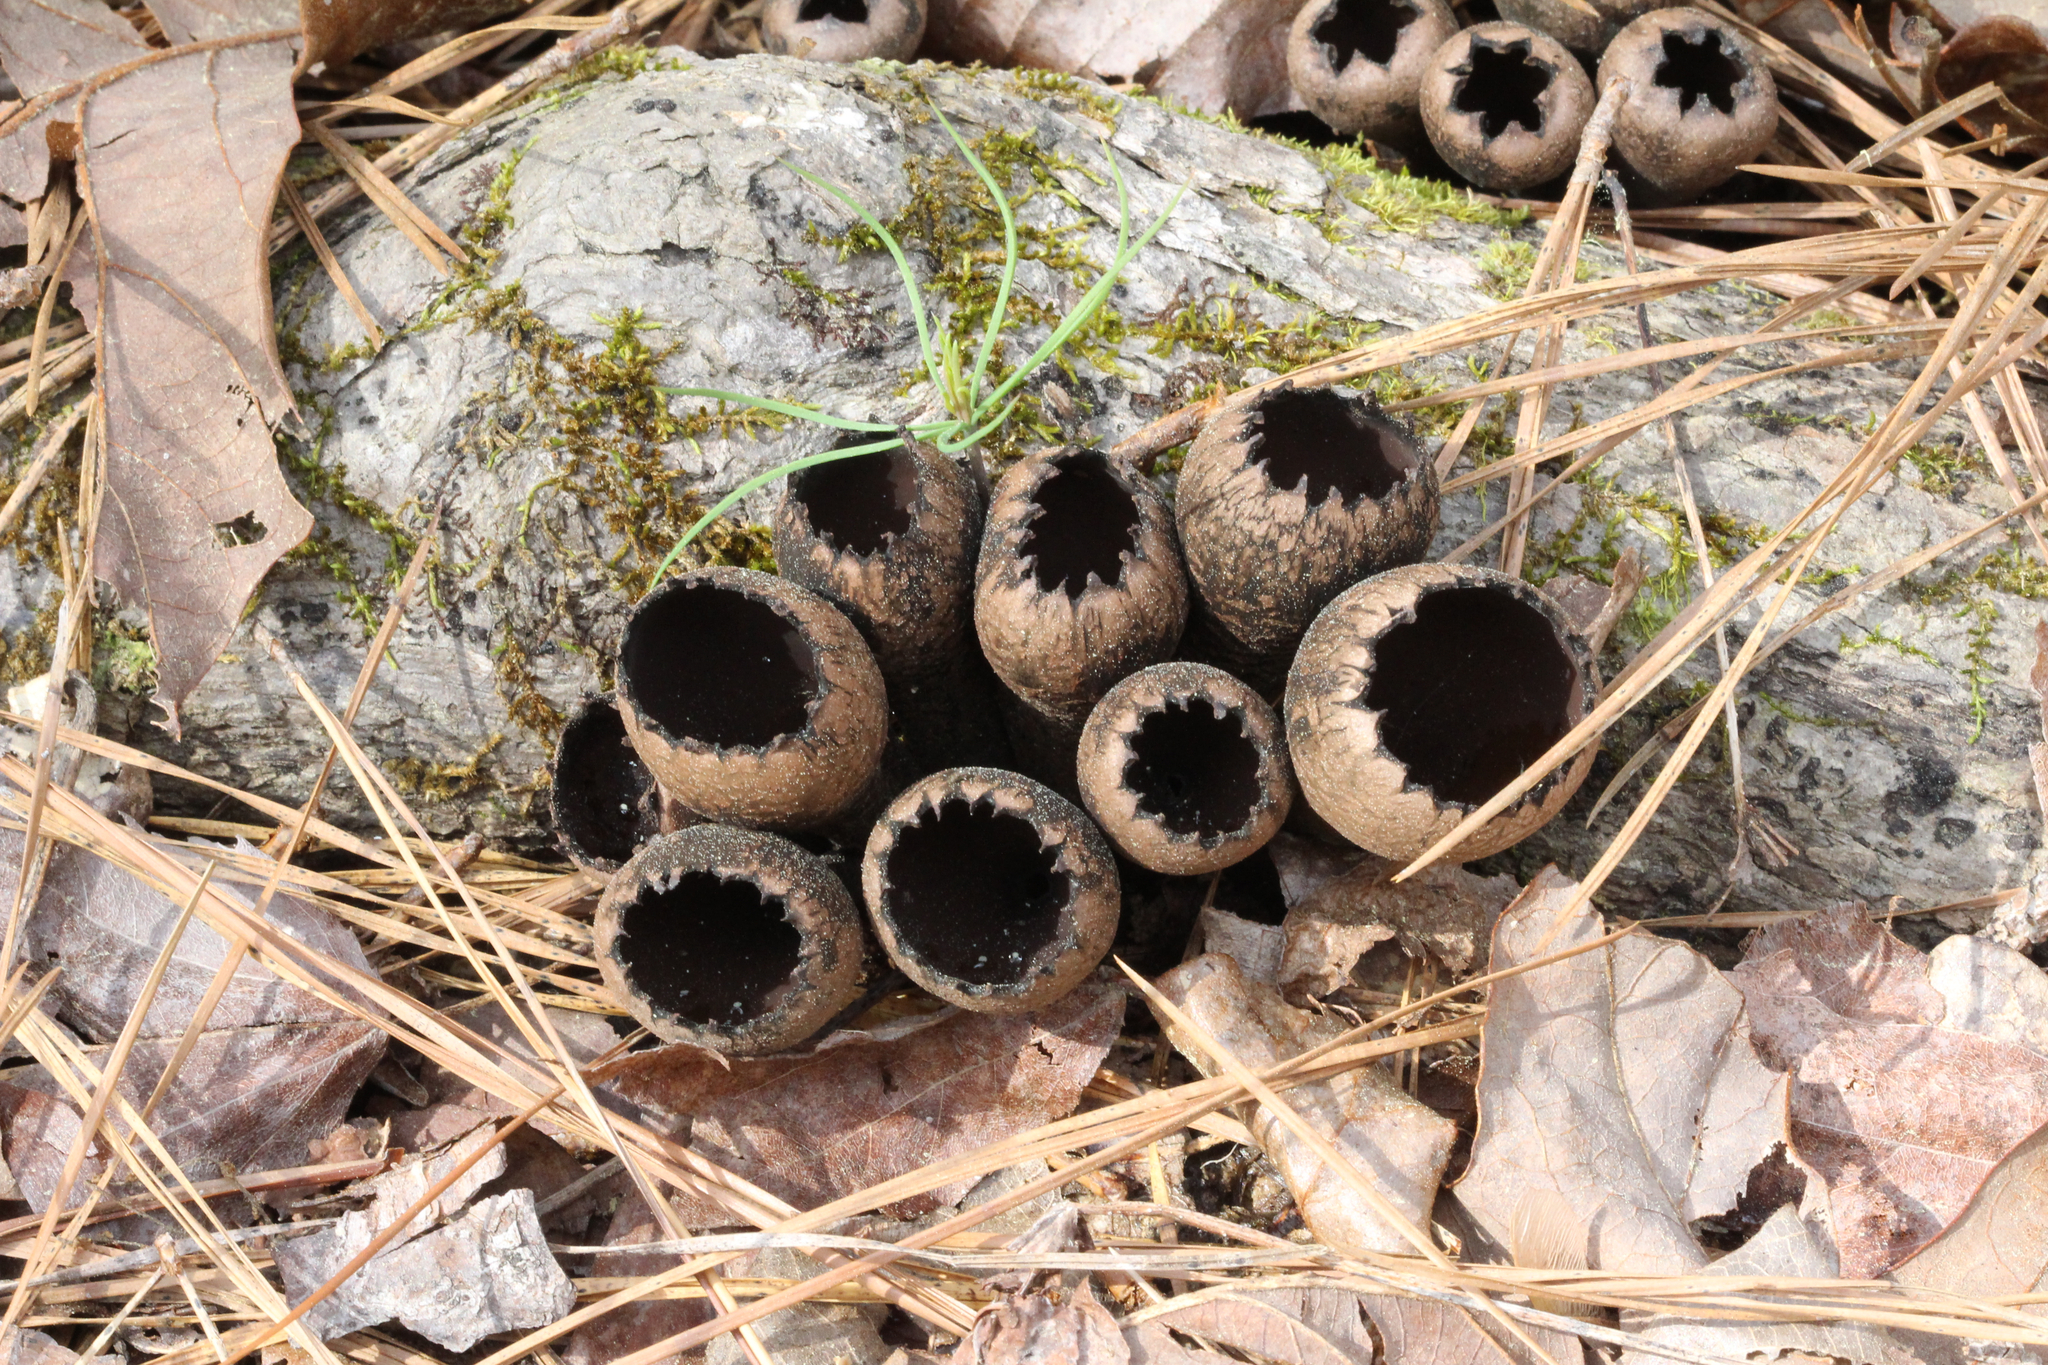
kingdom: Fungi
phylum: Ascomycota
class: Pezizomycetes
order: Pezizales
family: Sarcosomataceae
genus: Urnula
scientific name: Urnula craterium
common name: Devil's urn
